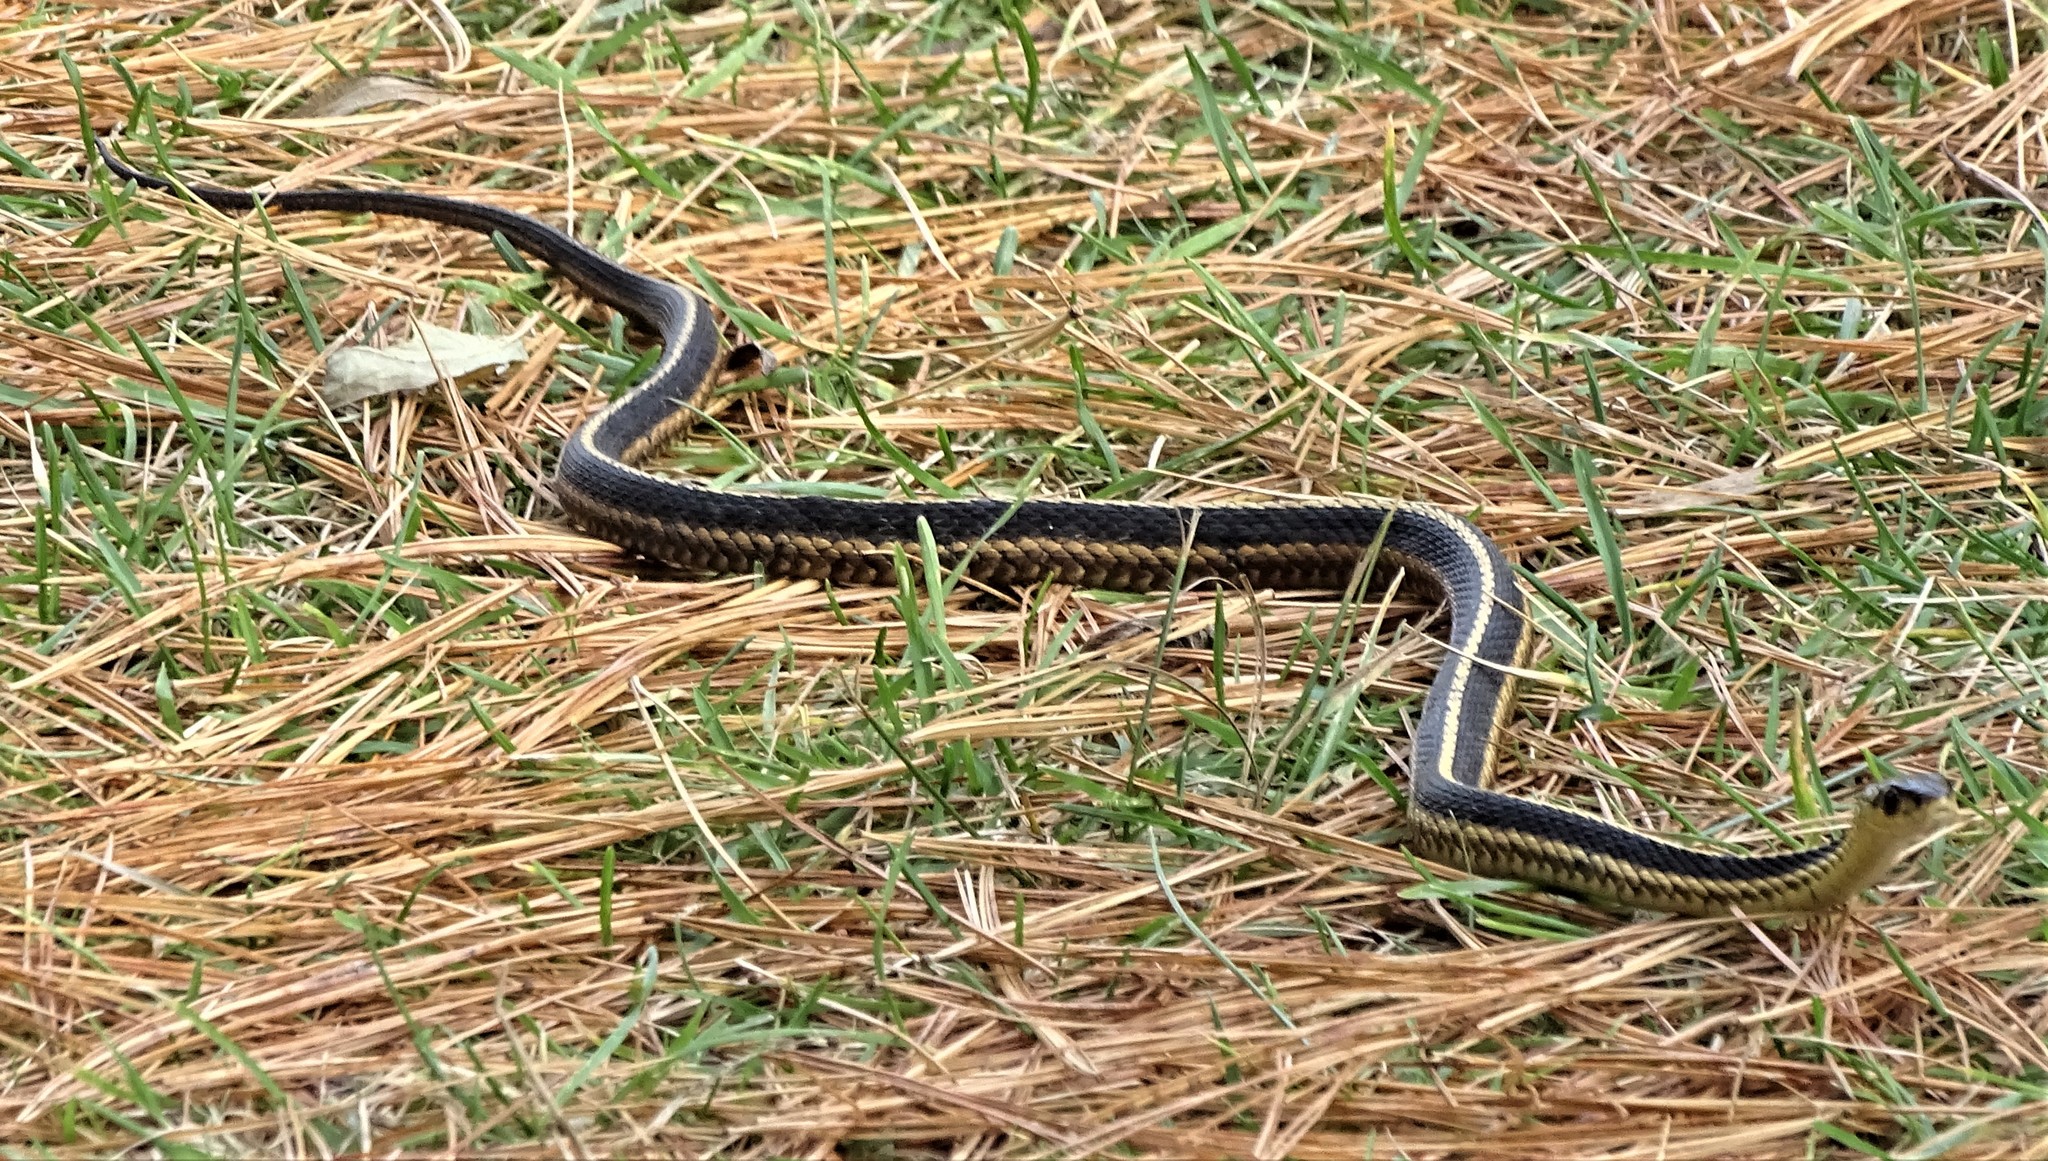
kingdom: Animalia
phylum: Chordata
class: Squamata
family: Colubridae
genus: Thamnophis
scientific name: Thamnophis sirtalis
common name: Common garter snake
